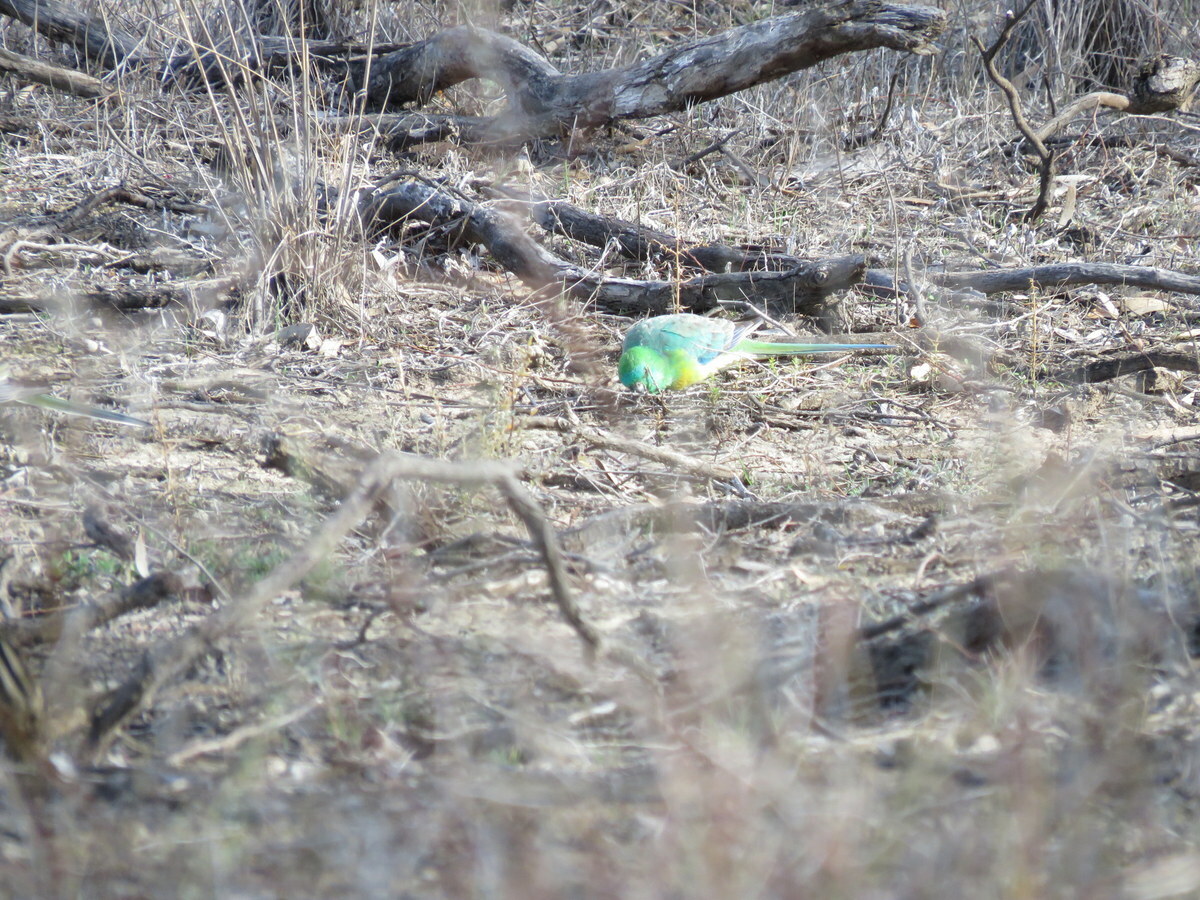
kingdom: Animalia
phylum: Chordata
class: Aves
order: Psittaciformes
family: Psittacidae
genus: Psephotus
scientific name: Psephotus haematonotus
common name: Red-rumped parrot
